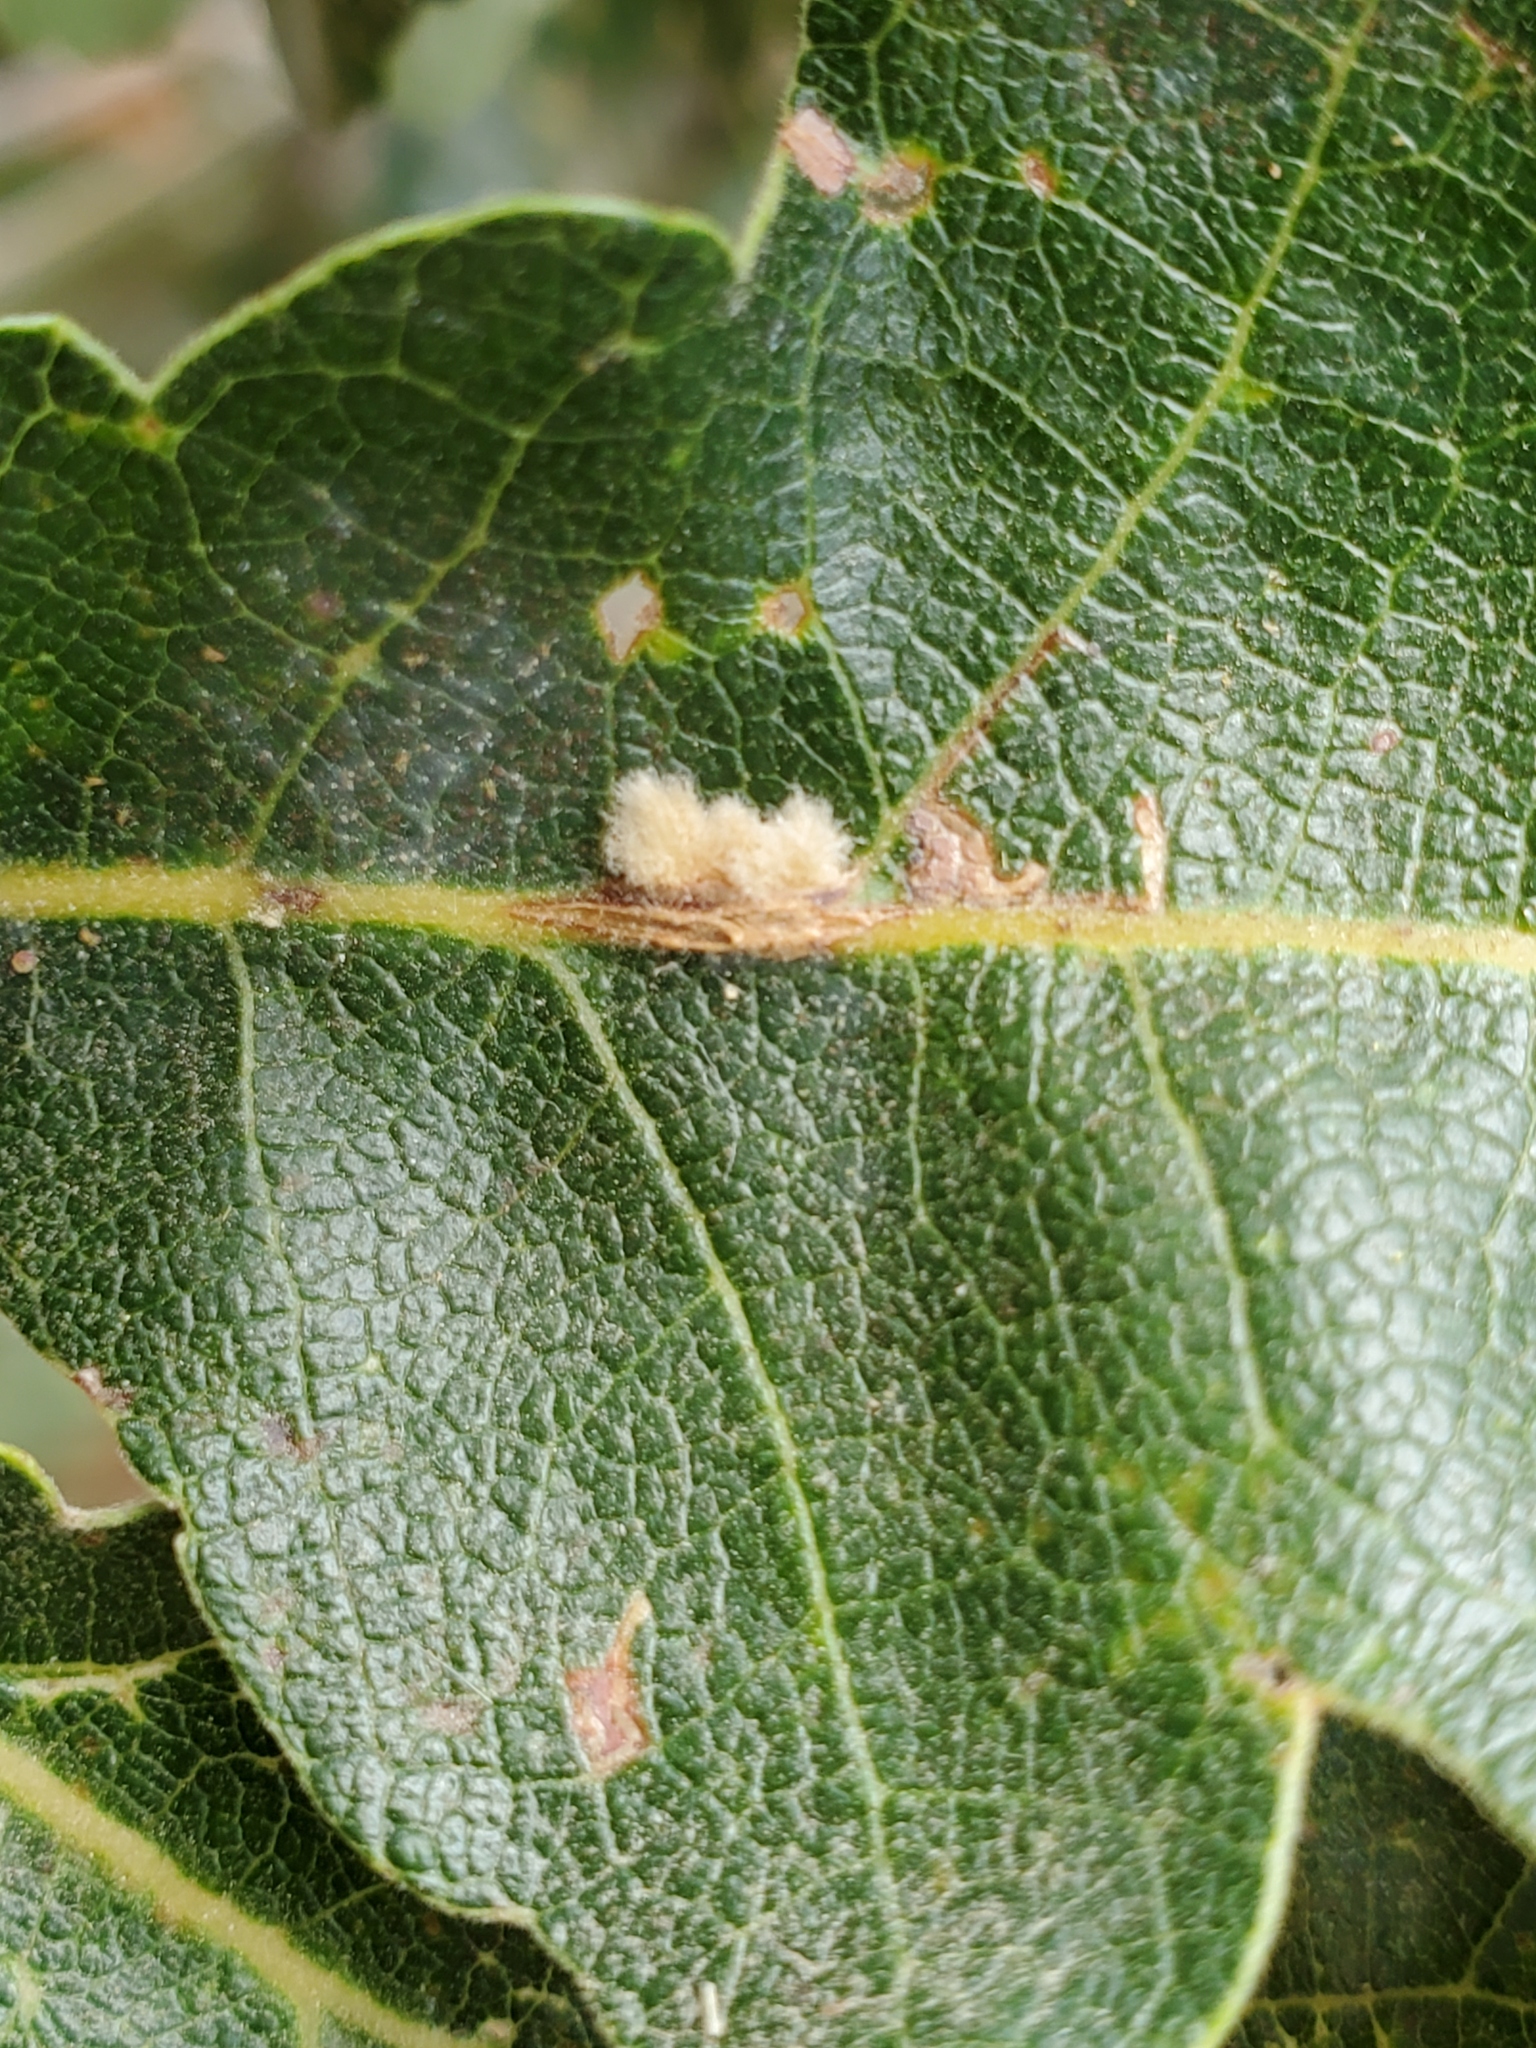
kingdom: Animalia
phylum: Arthropoda
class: Insecta
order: Hymenoptera
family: Cynipidae
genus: Andricus
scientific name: Andricus Druon fullawayi
